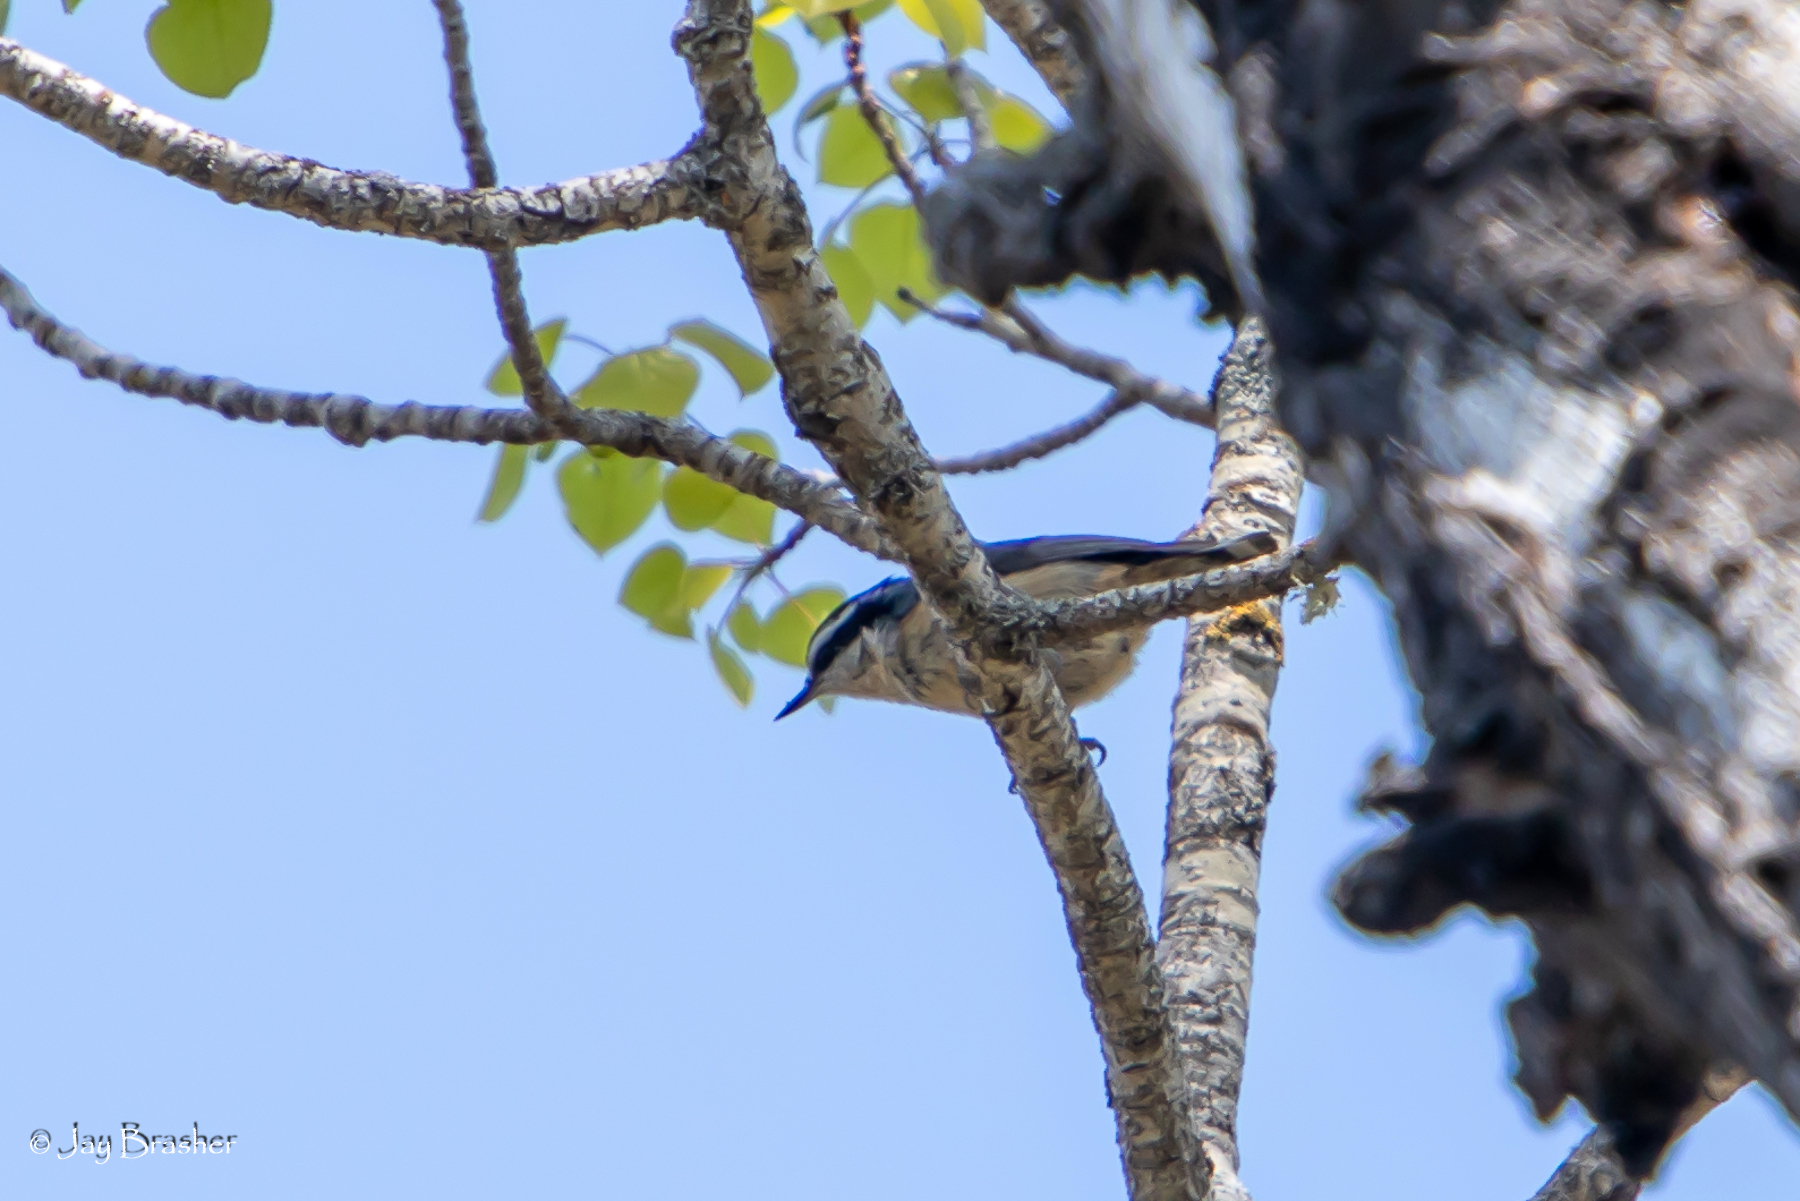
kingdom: Animalia
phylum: Chordata
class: Aves
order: Passeriformes
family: Sittidae
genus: Sitta
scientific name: Sitta canadensis
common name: Red-breasted nuthatch
